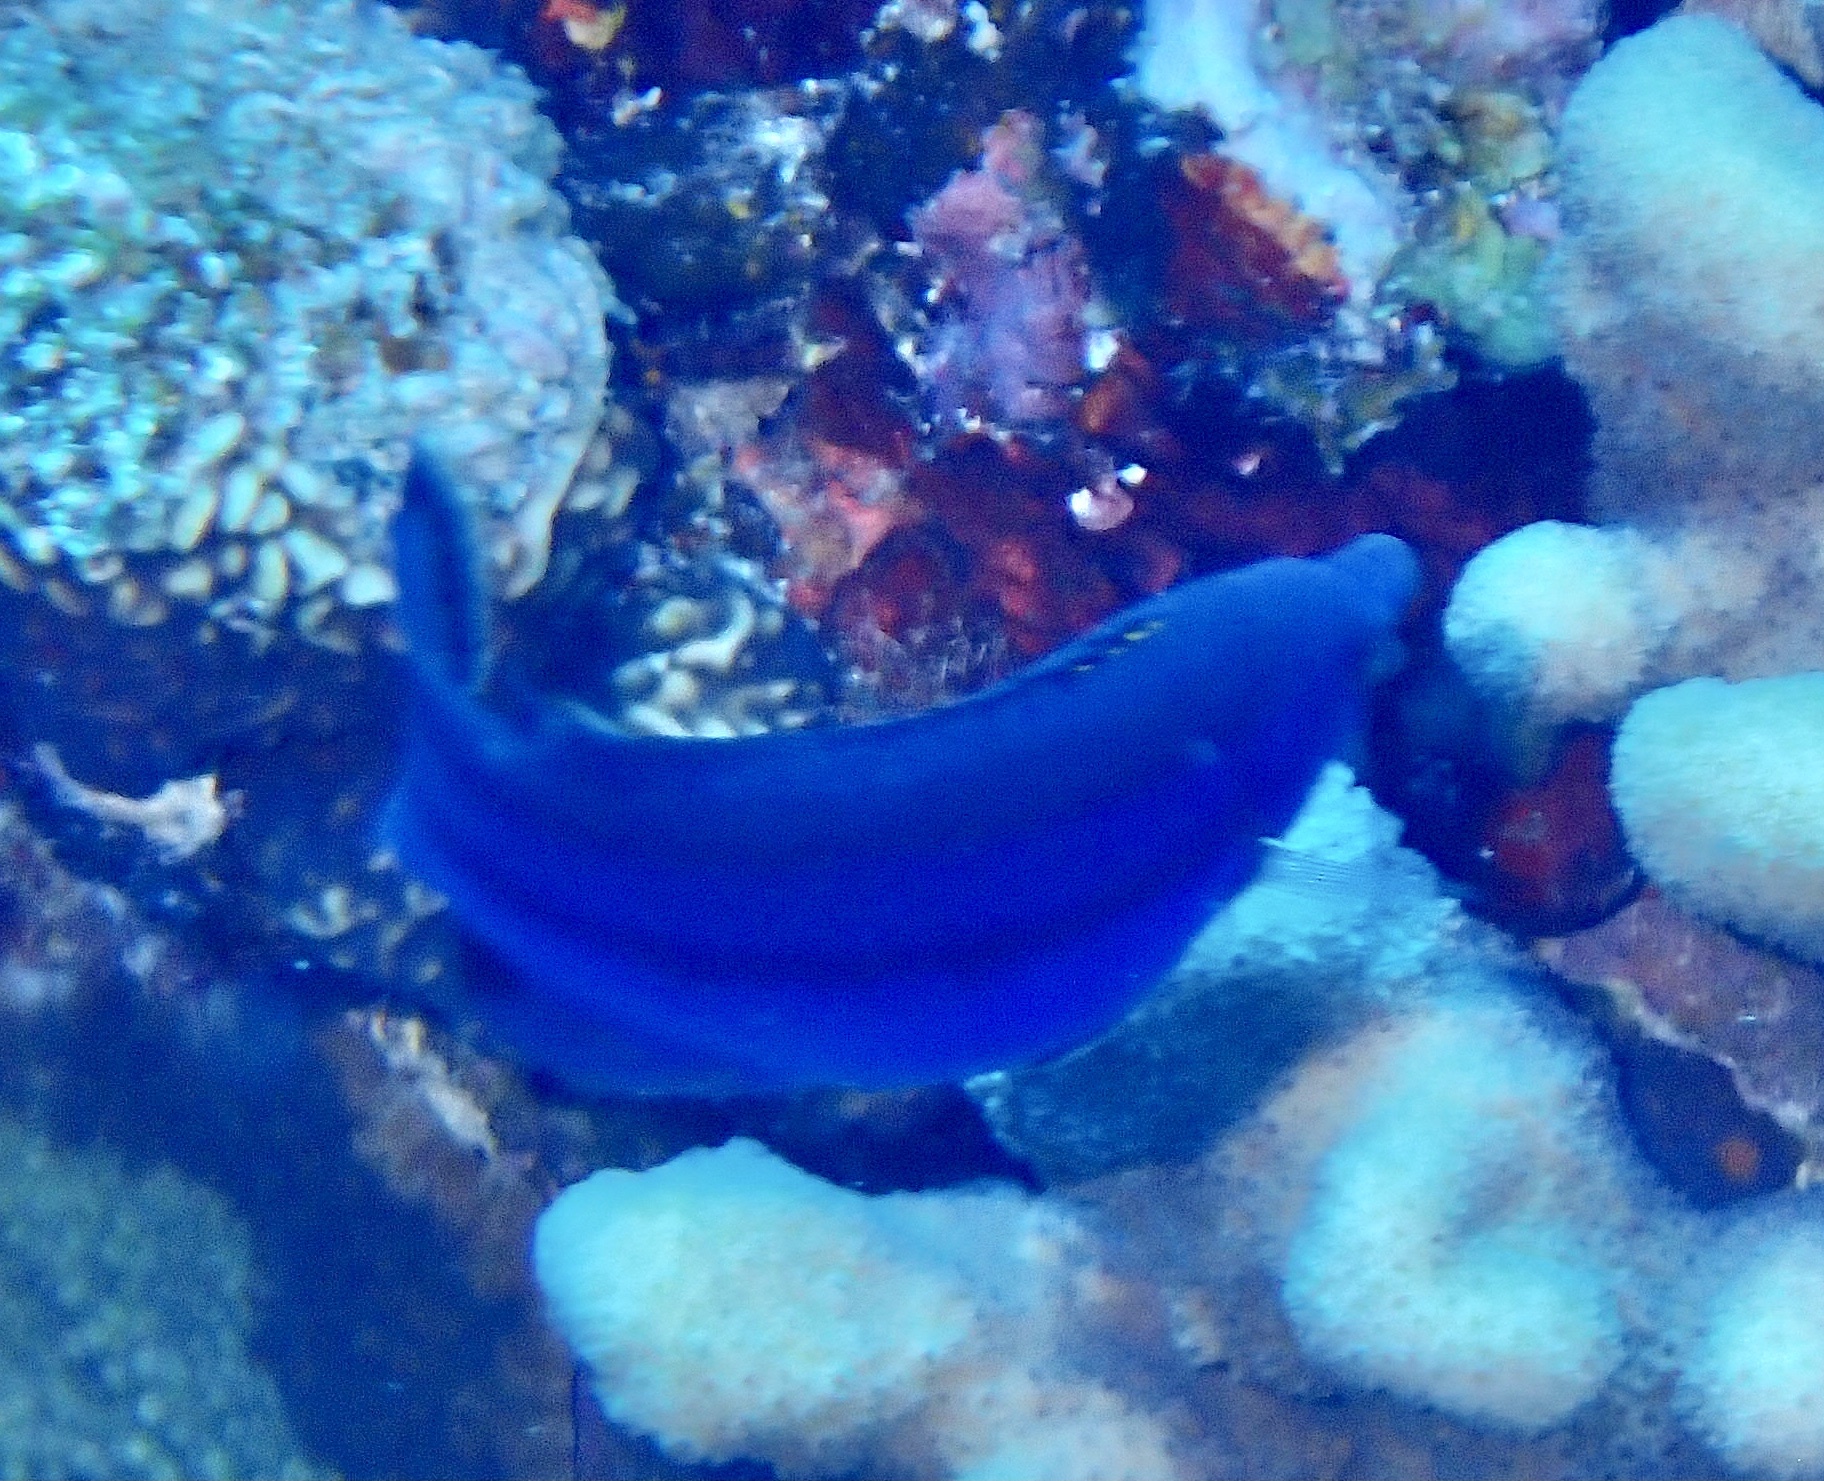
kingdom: Animalia
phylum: Chordata
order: Perciformes
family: Labridae
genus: Larabicus
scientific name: Larabicus quadrilineatus
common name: Fourline wrasse
